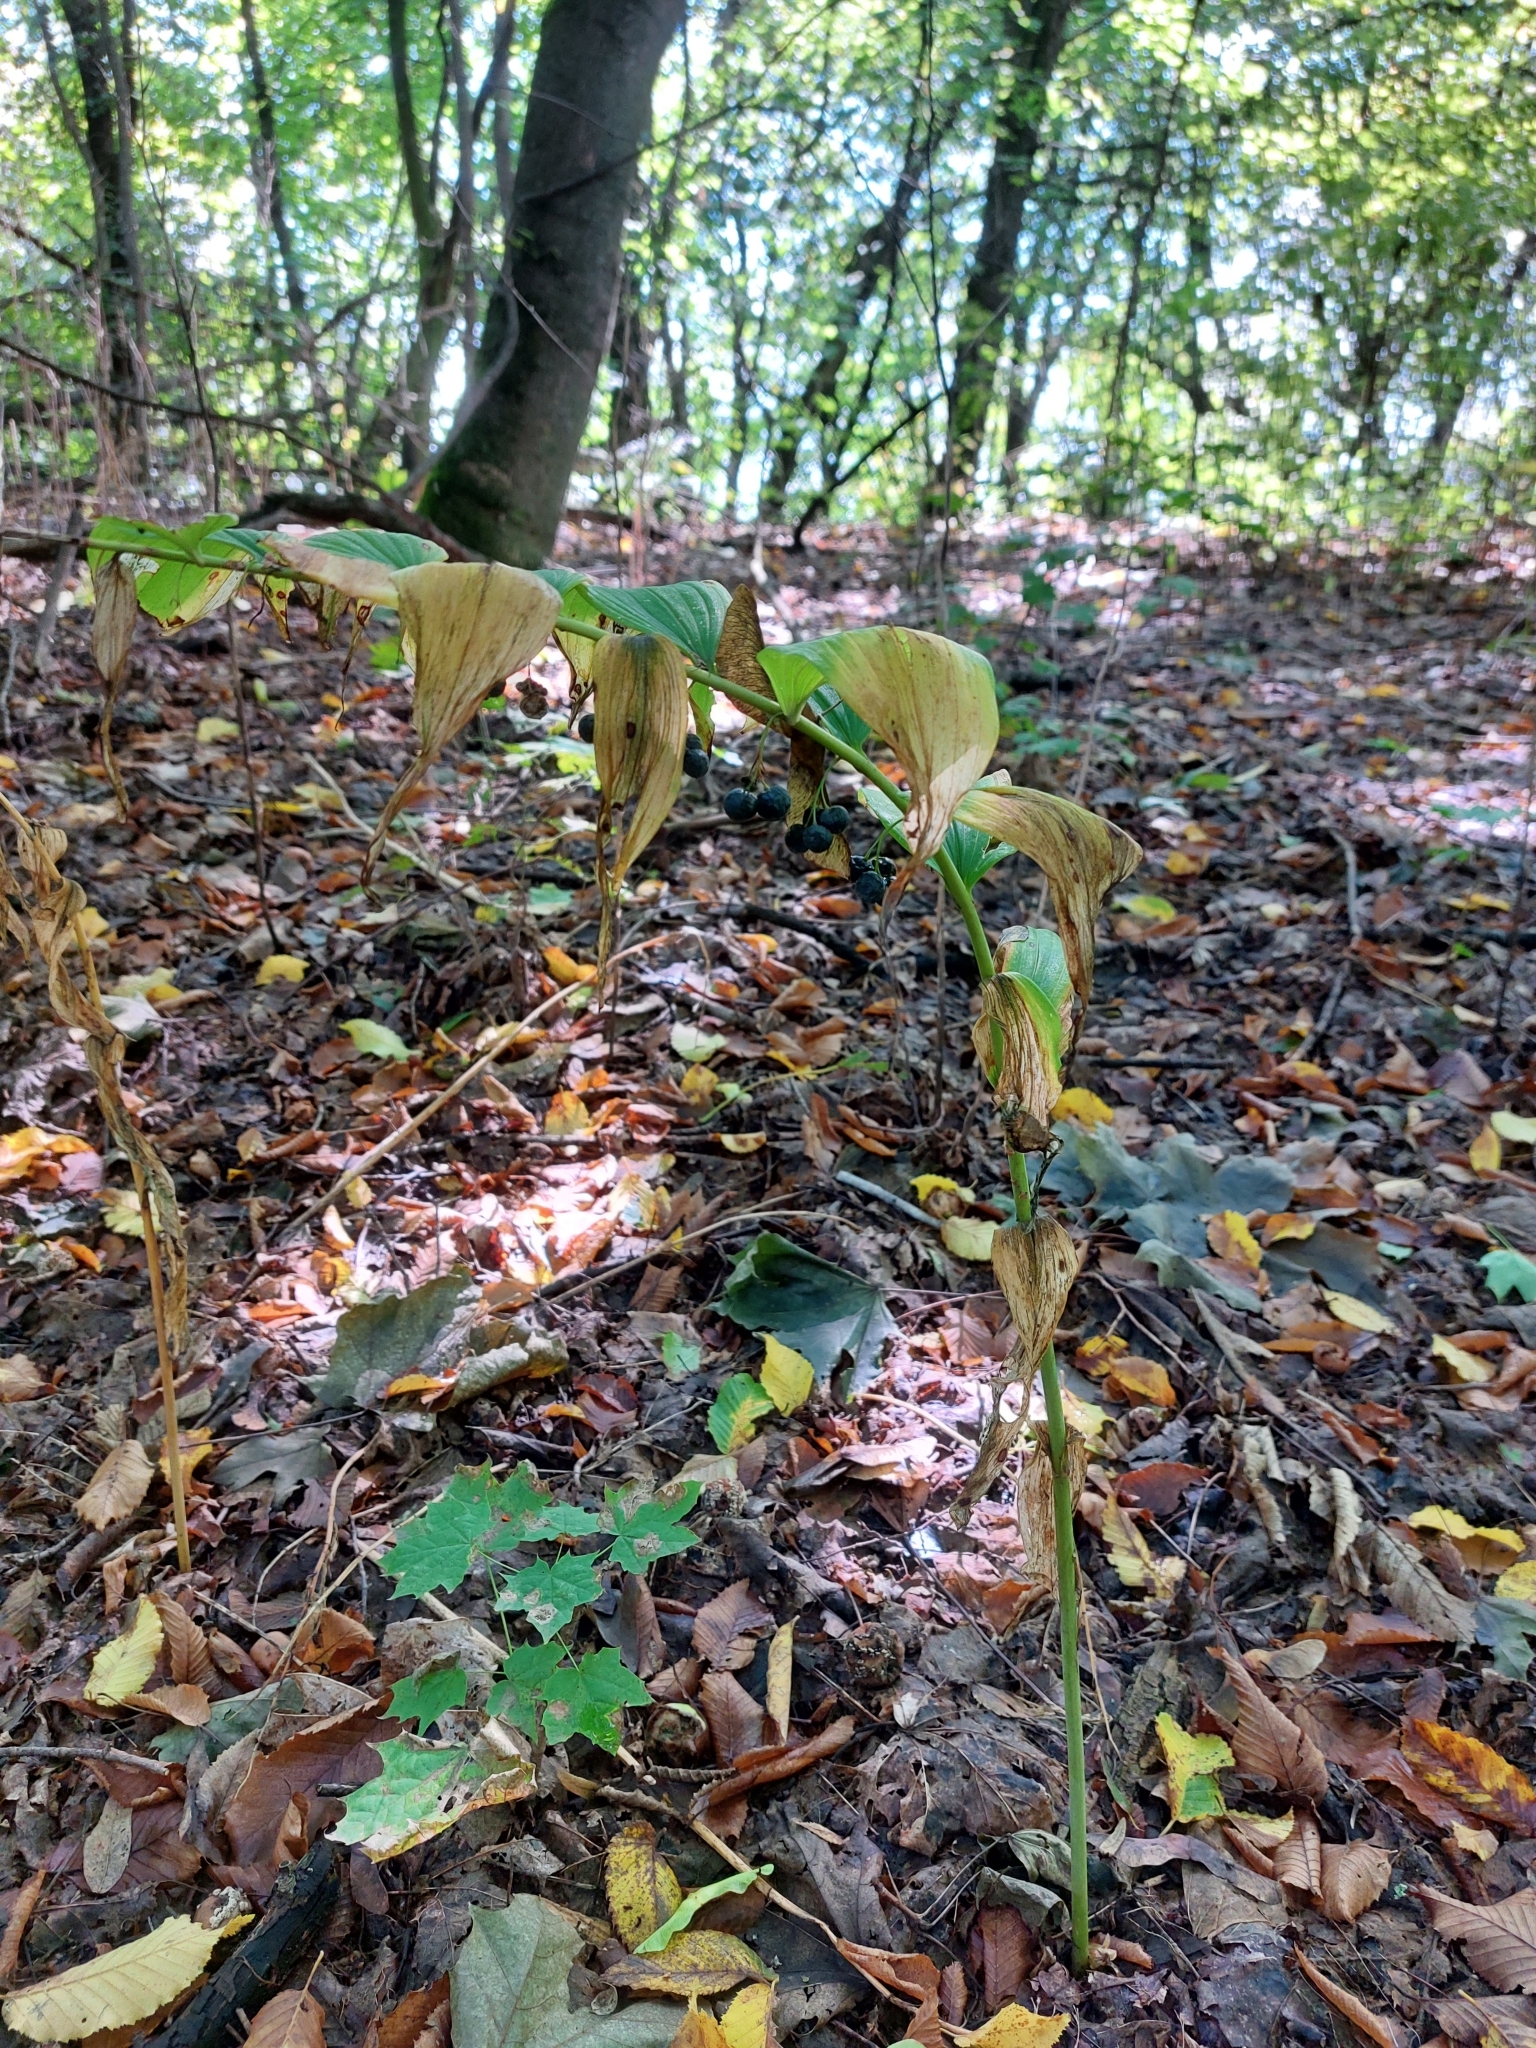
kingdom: Plantae
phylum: Tracheophyta
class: Liliopsida
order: Asparagales
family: Asparagaceae
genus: Polygonatum
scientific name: Polygonatum multiflorum
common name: Solomon's-seal
